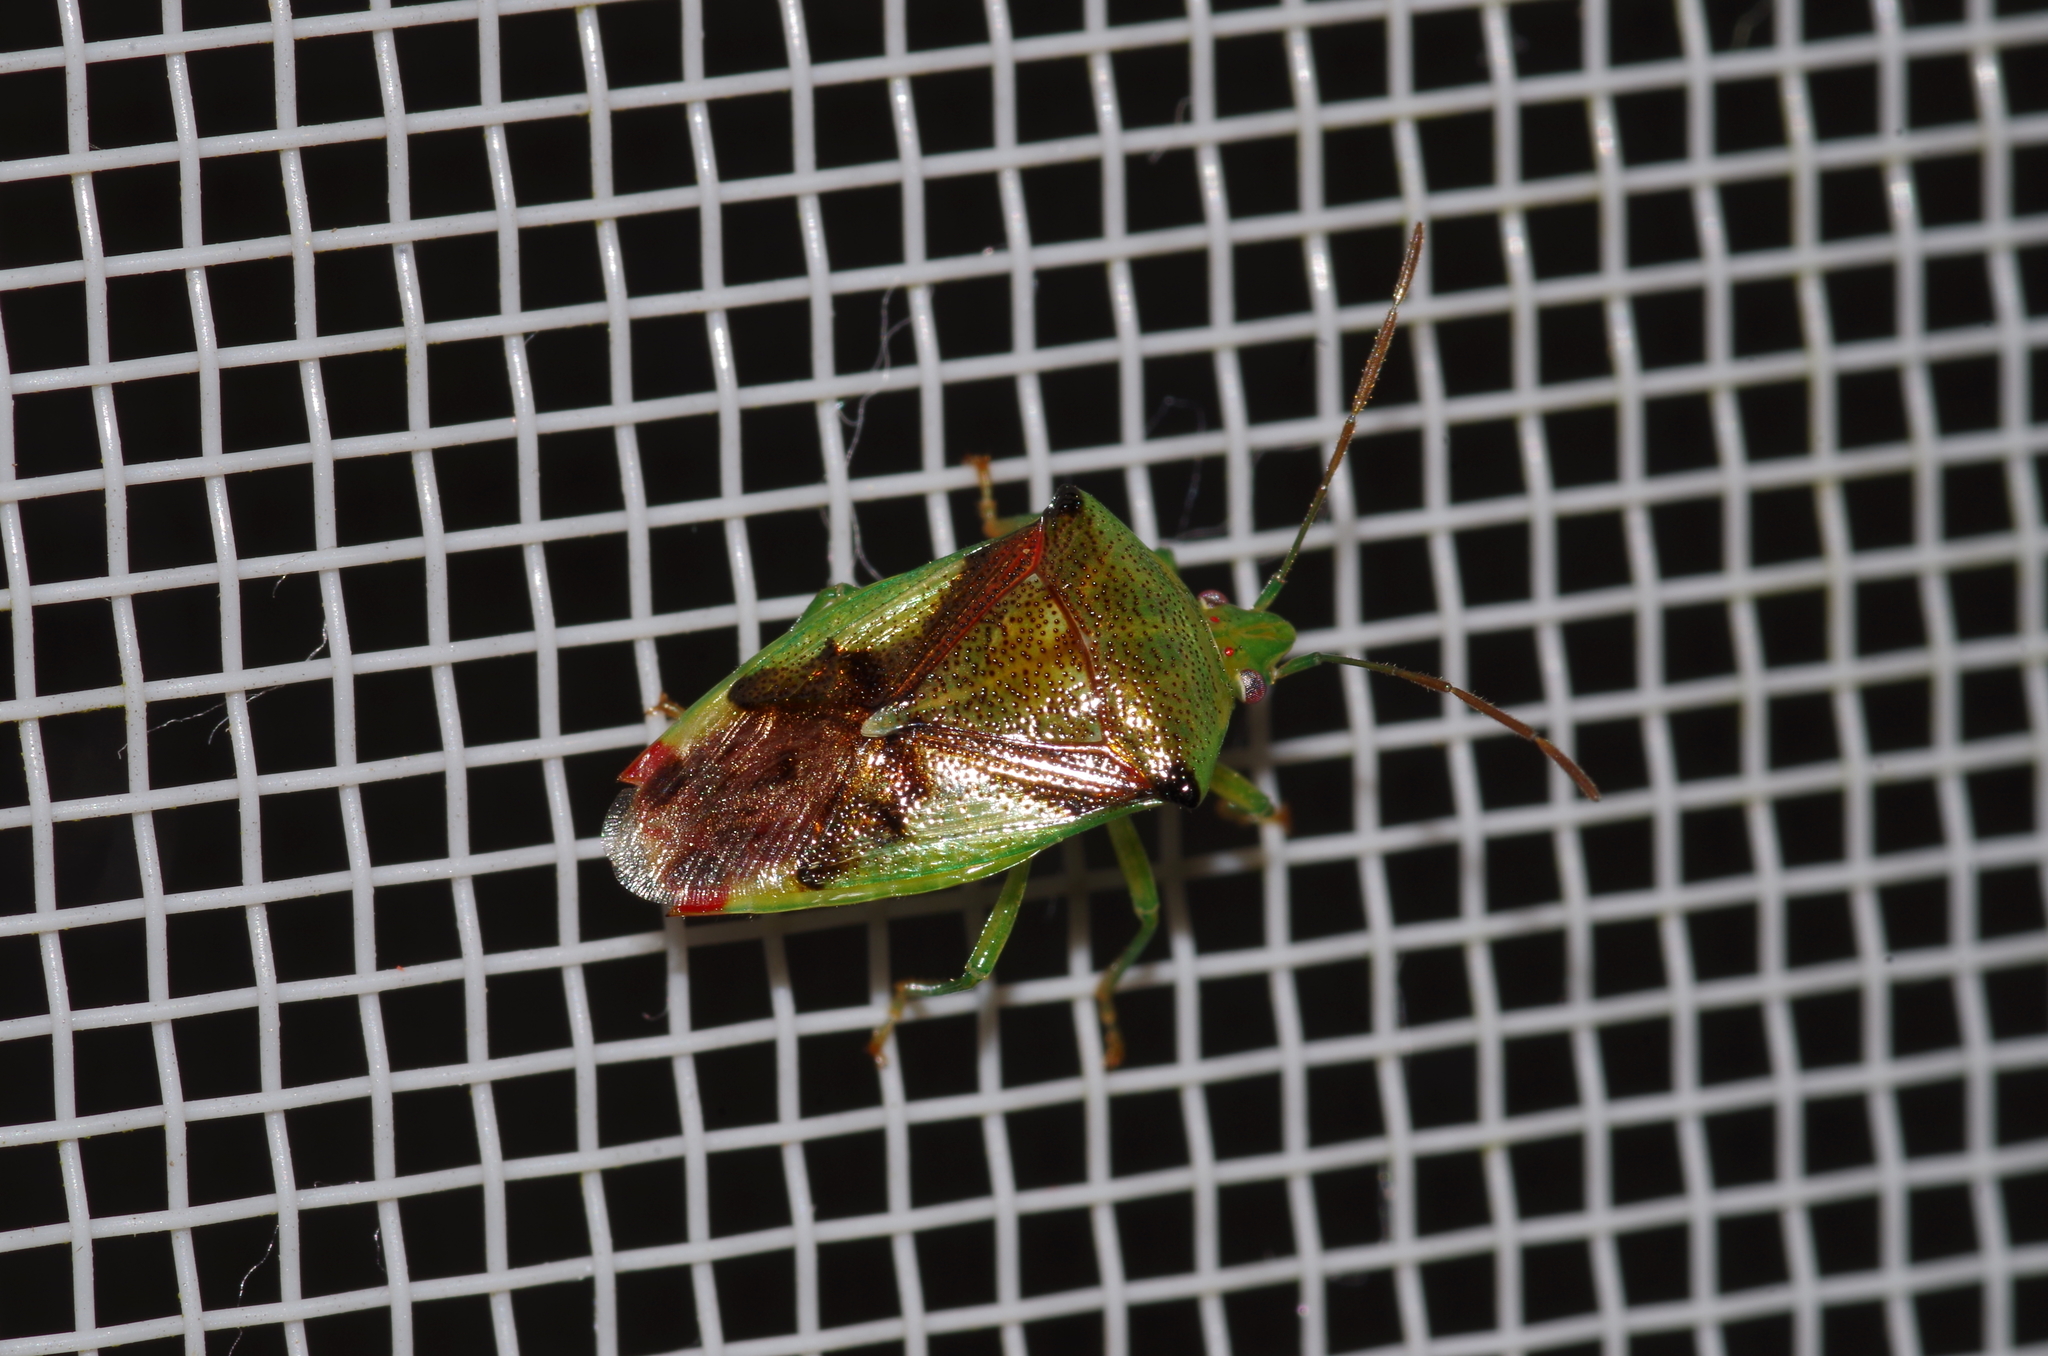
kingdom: Animalia
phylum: Arthropoda
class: Insecta
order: Hemiptera
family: Acanthosomatidae
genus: Elasmostethus
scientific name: Elasmostethus nubilus
